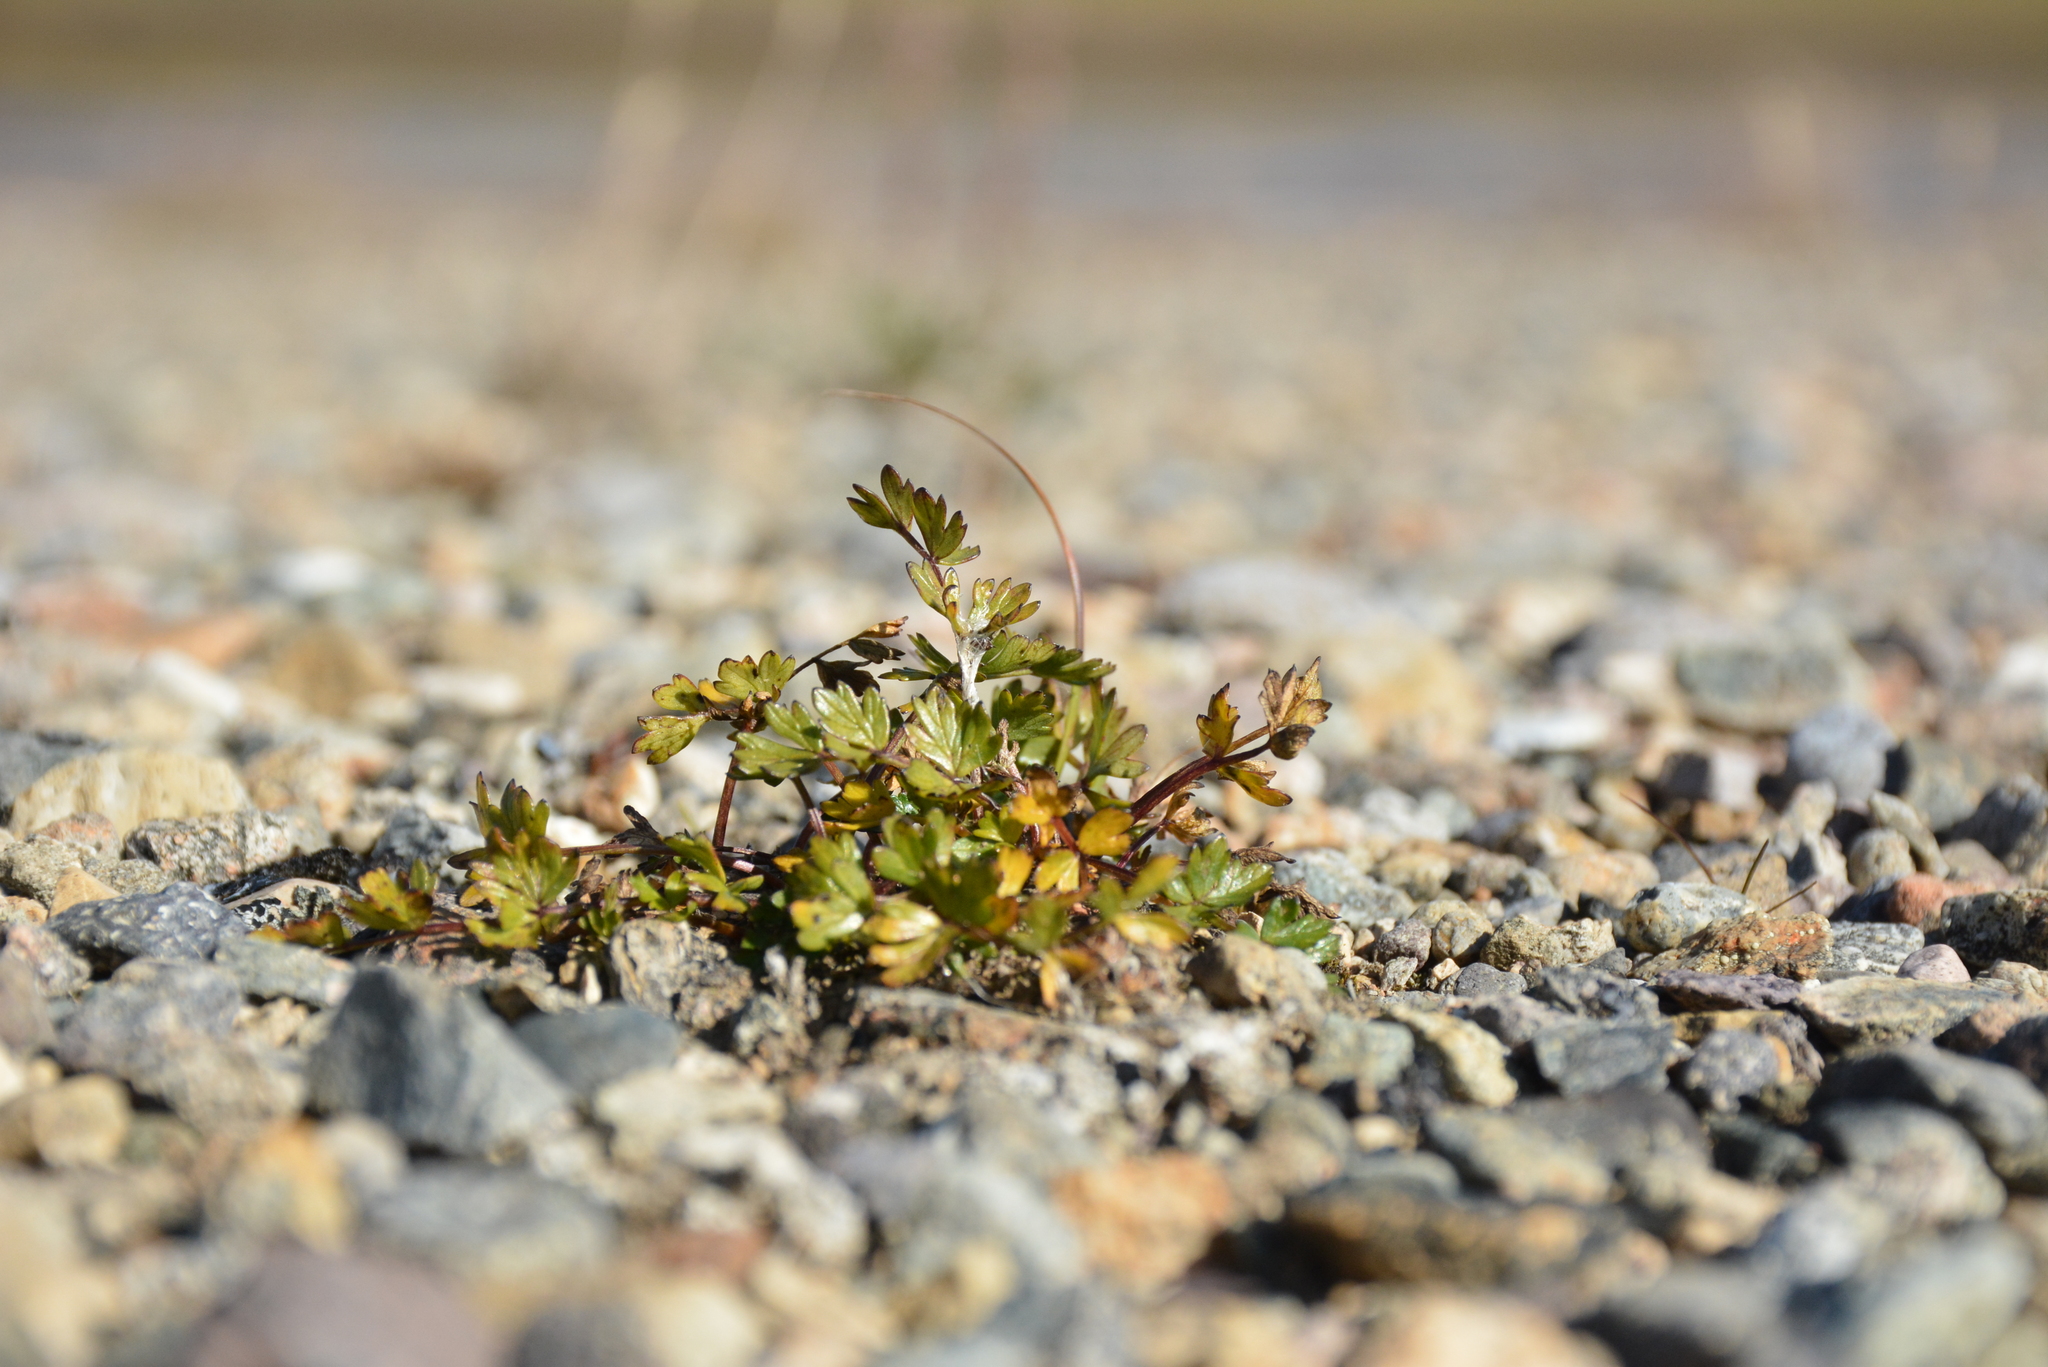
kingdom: Plantae
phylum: Tracheophyta
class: Magnoliopsida
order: Apiales
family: Apiaceae
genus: Orumbella
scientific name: Orumbella macounii
